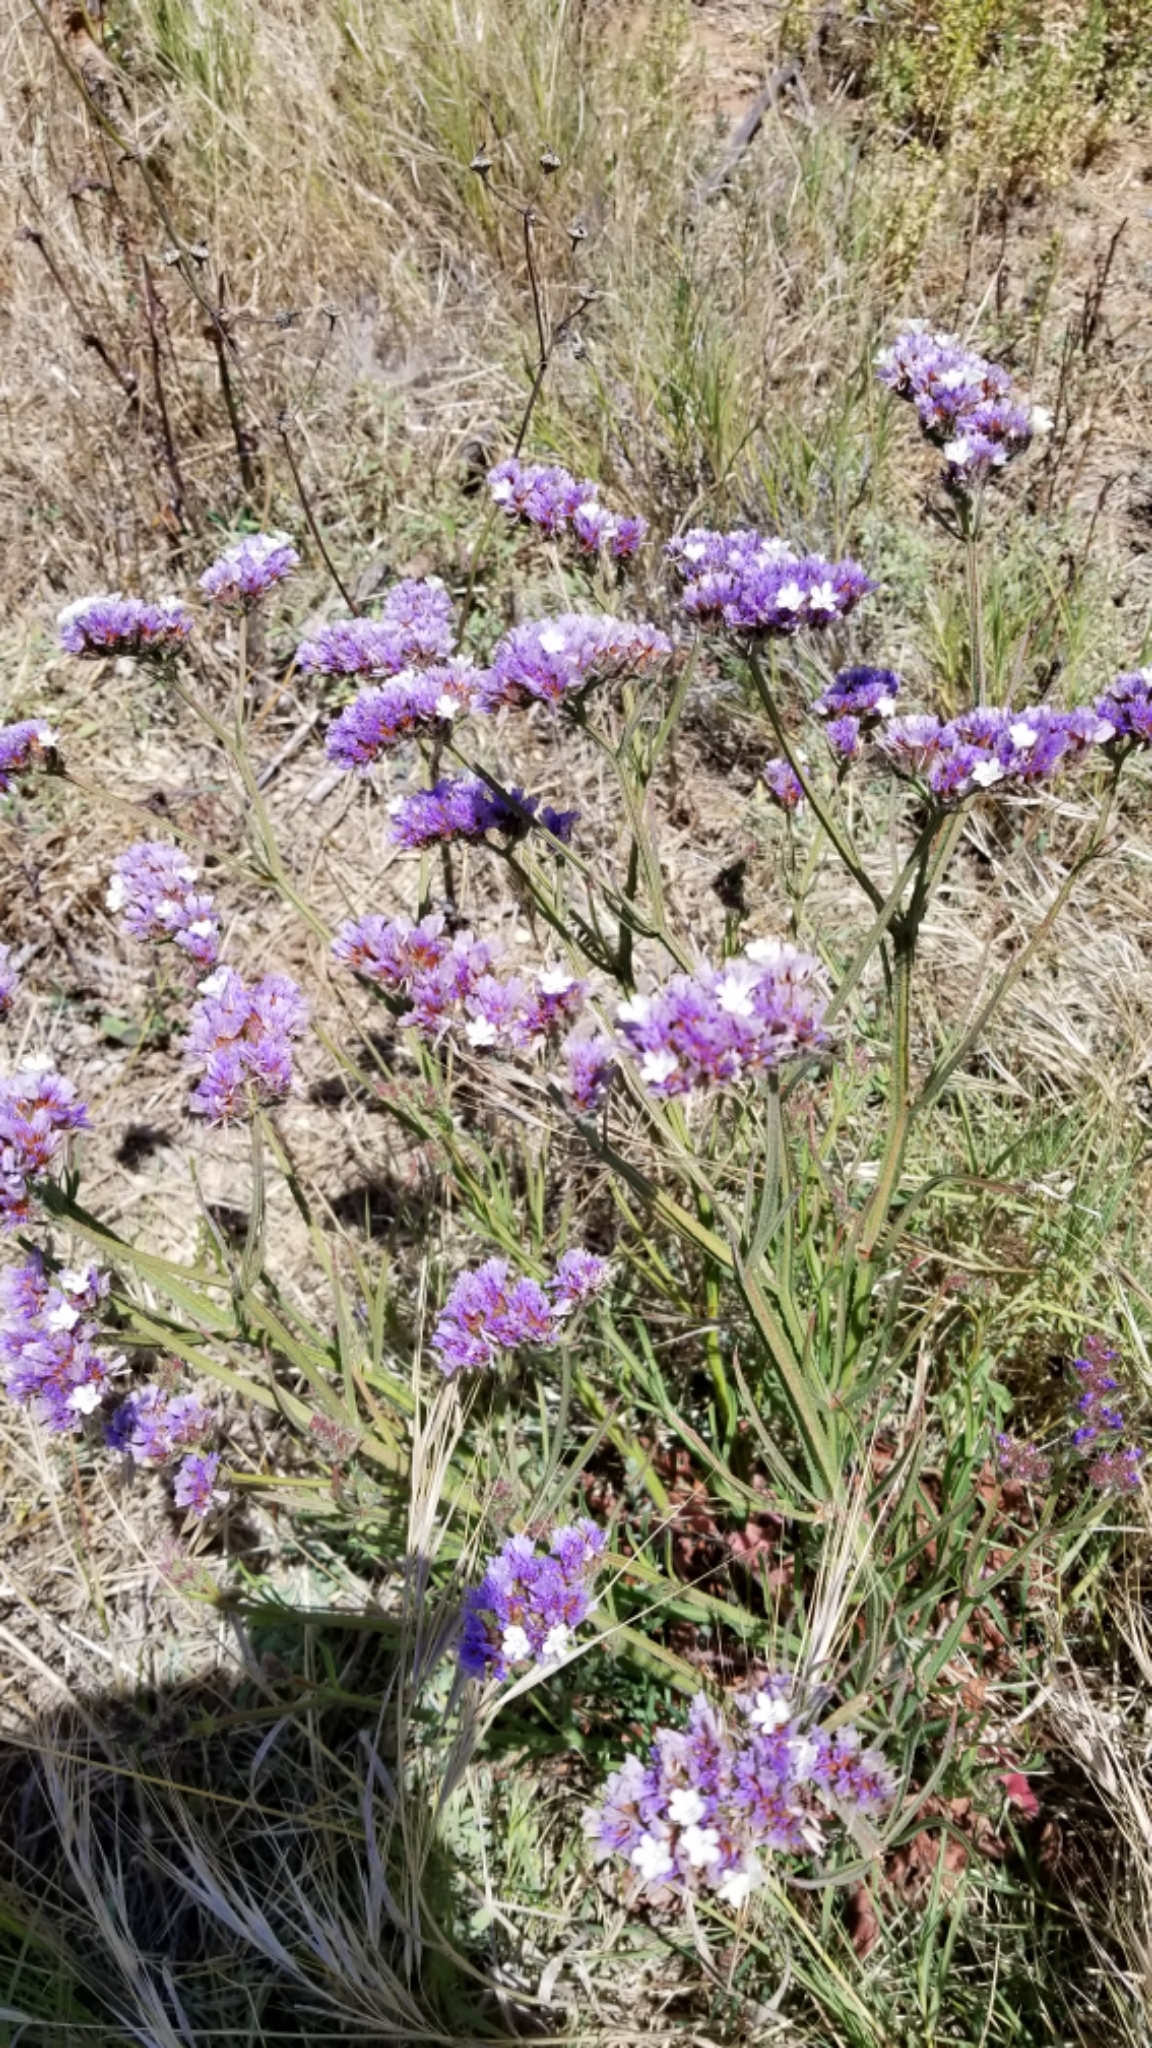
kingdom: Plantae
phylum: Tracheophyta
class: Magnoliopsida
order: Caryophyllales
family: Plumbaginaceae
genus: Limonium
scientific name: Limonium sinuatum
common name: Statice
